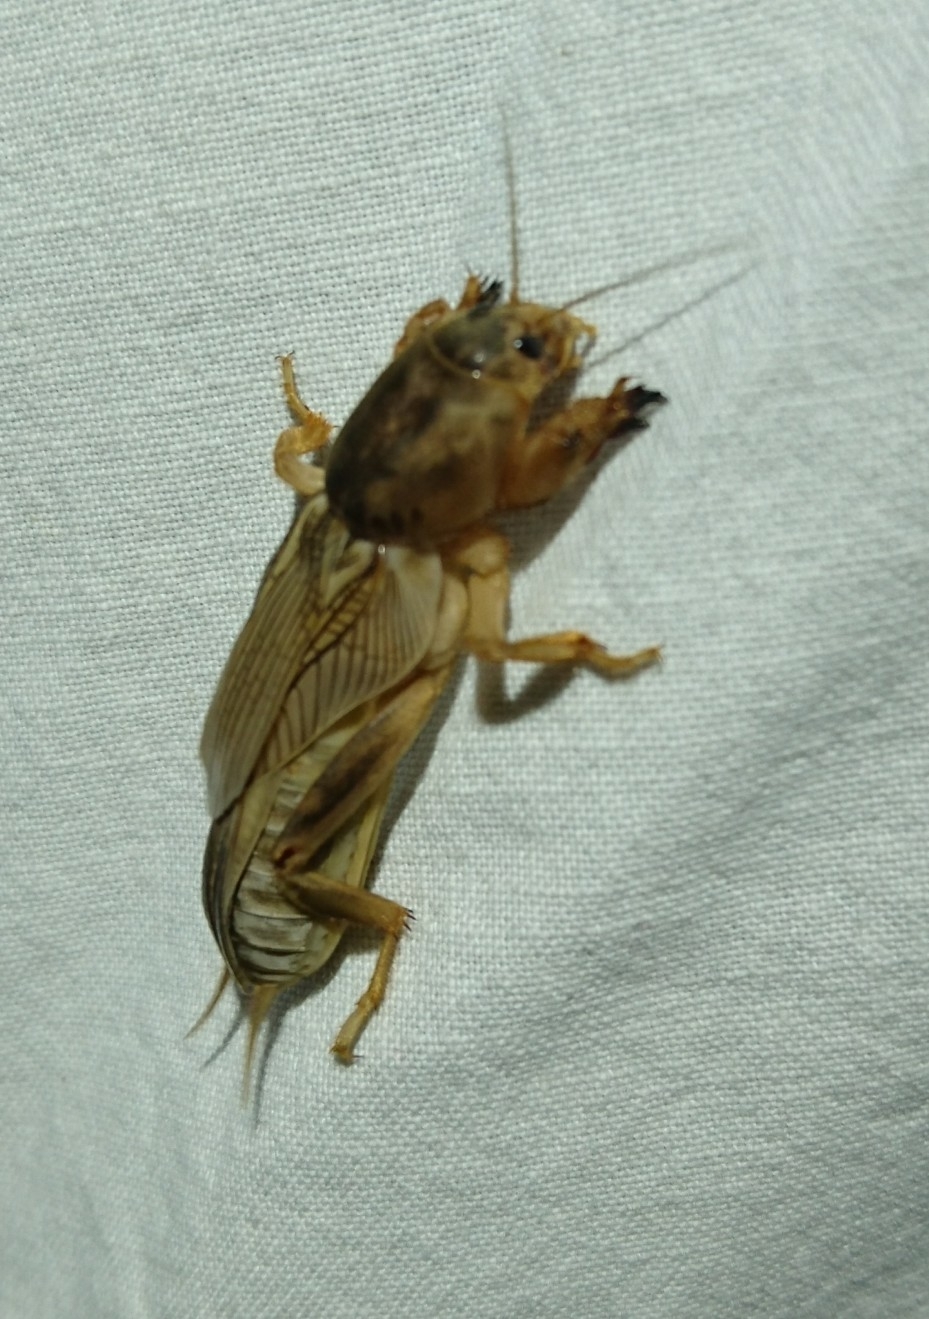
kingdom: Animalia
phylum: Arthropoda
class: Insecta
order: Orthoptera
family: Gryllotalpidae
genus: Neoscapteriscus
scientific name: Neoscapteriscus vicinus
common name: Tawny mole cricket
